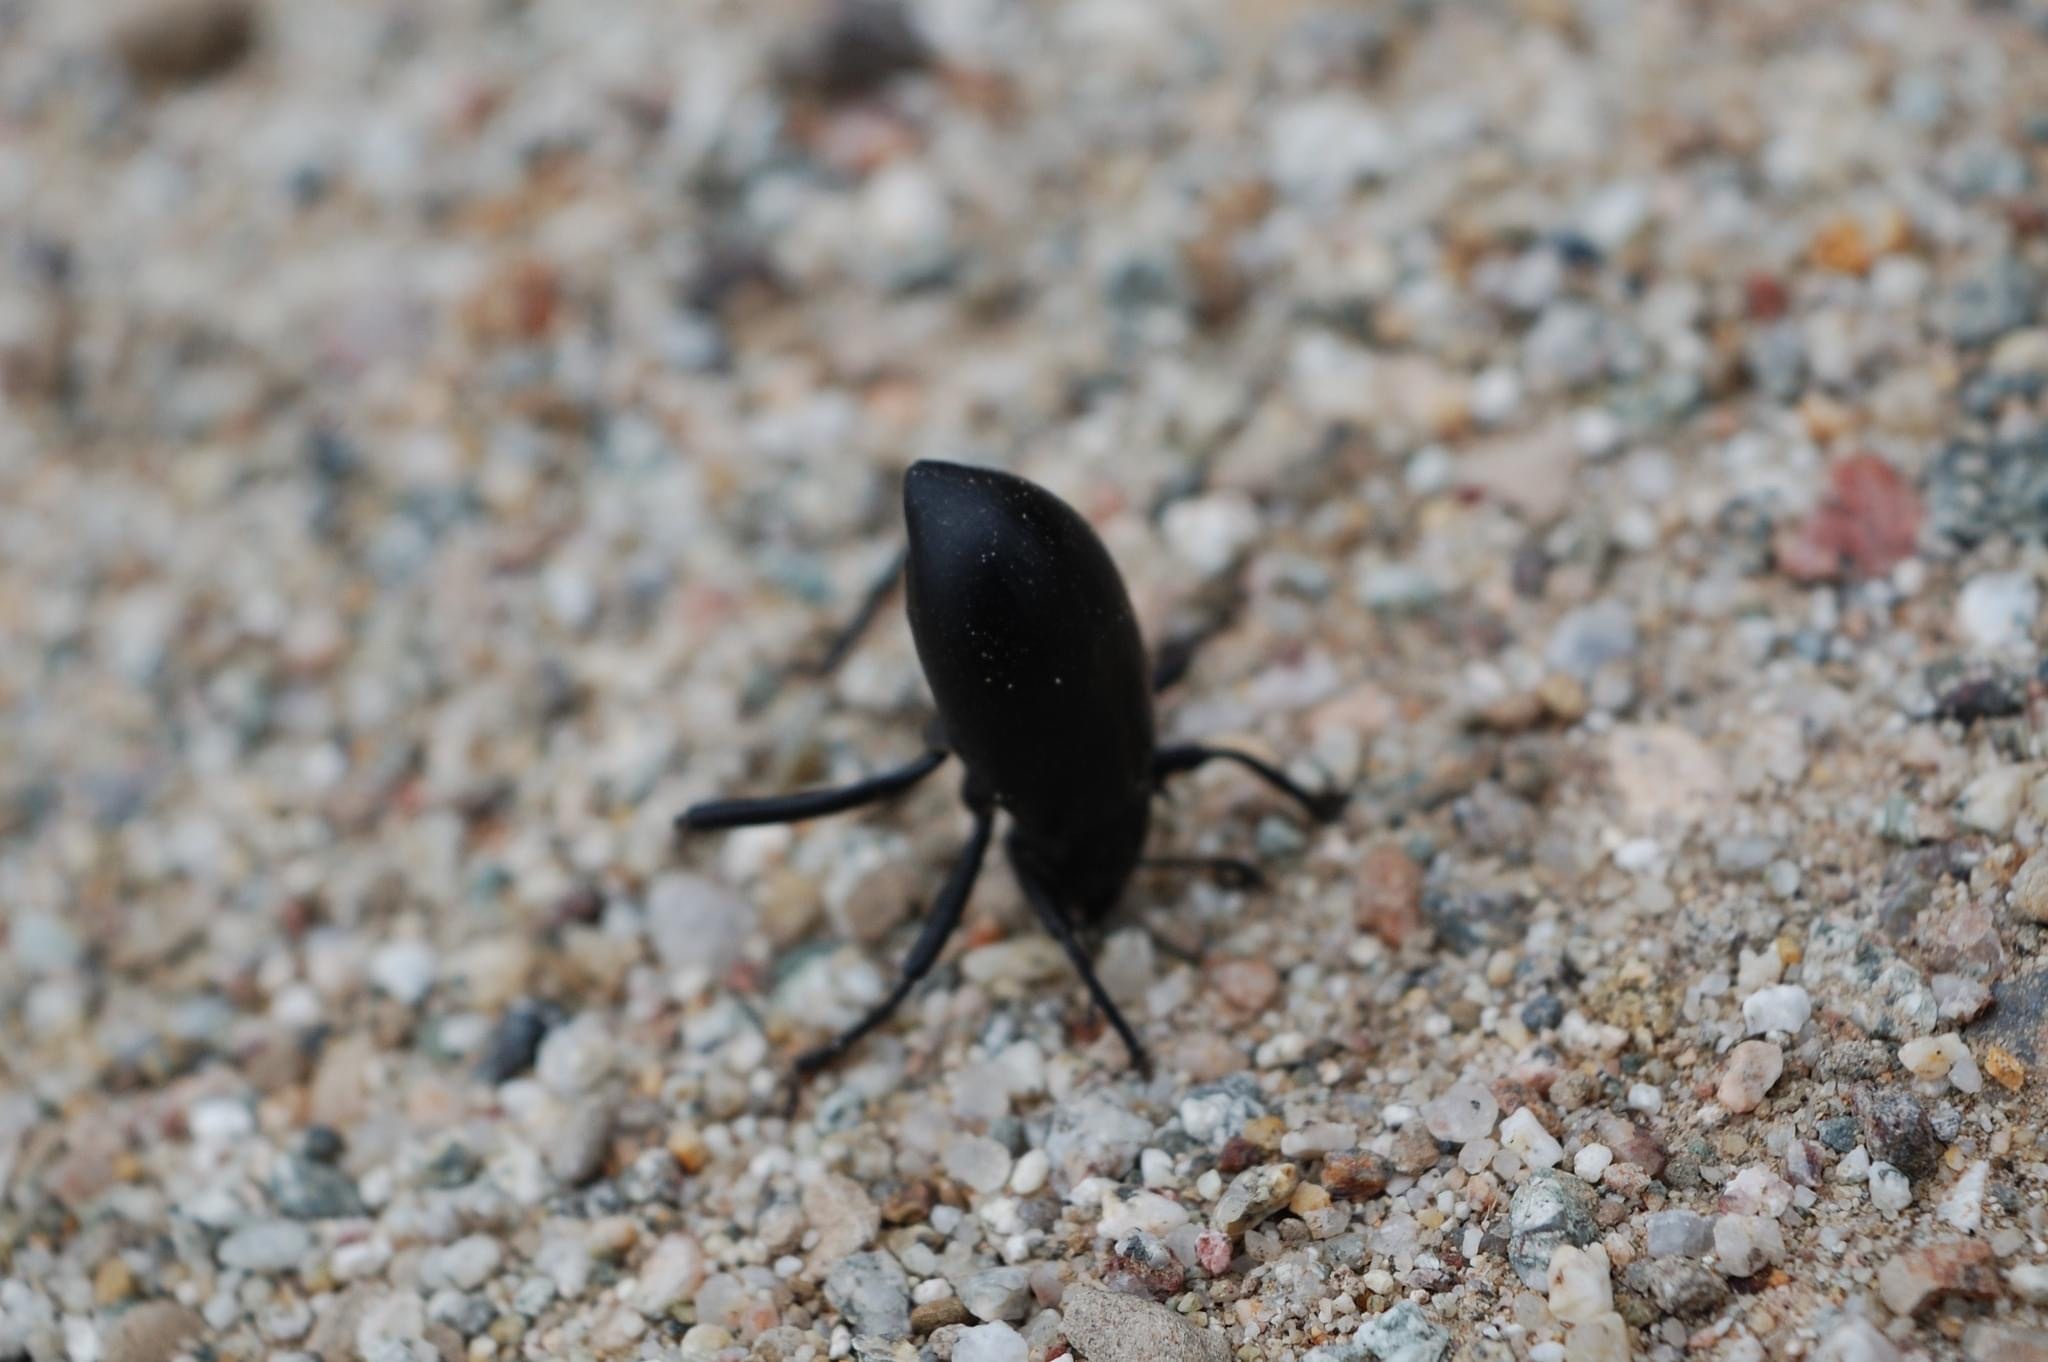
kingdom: Animalia
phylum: Arthropoda
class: Insecta
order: Coleoptera
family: Tenebrionidae
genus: Eleodes
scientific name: Eleodes armata
